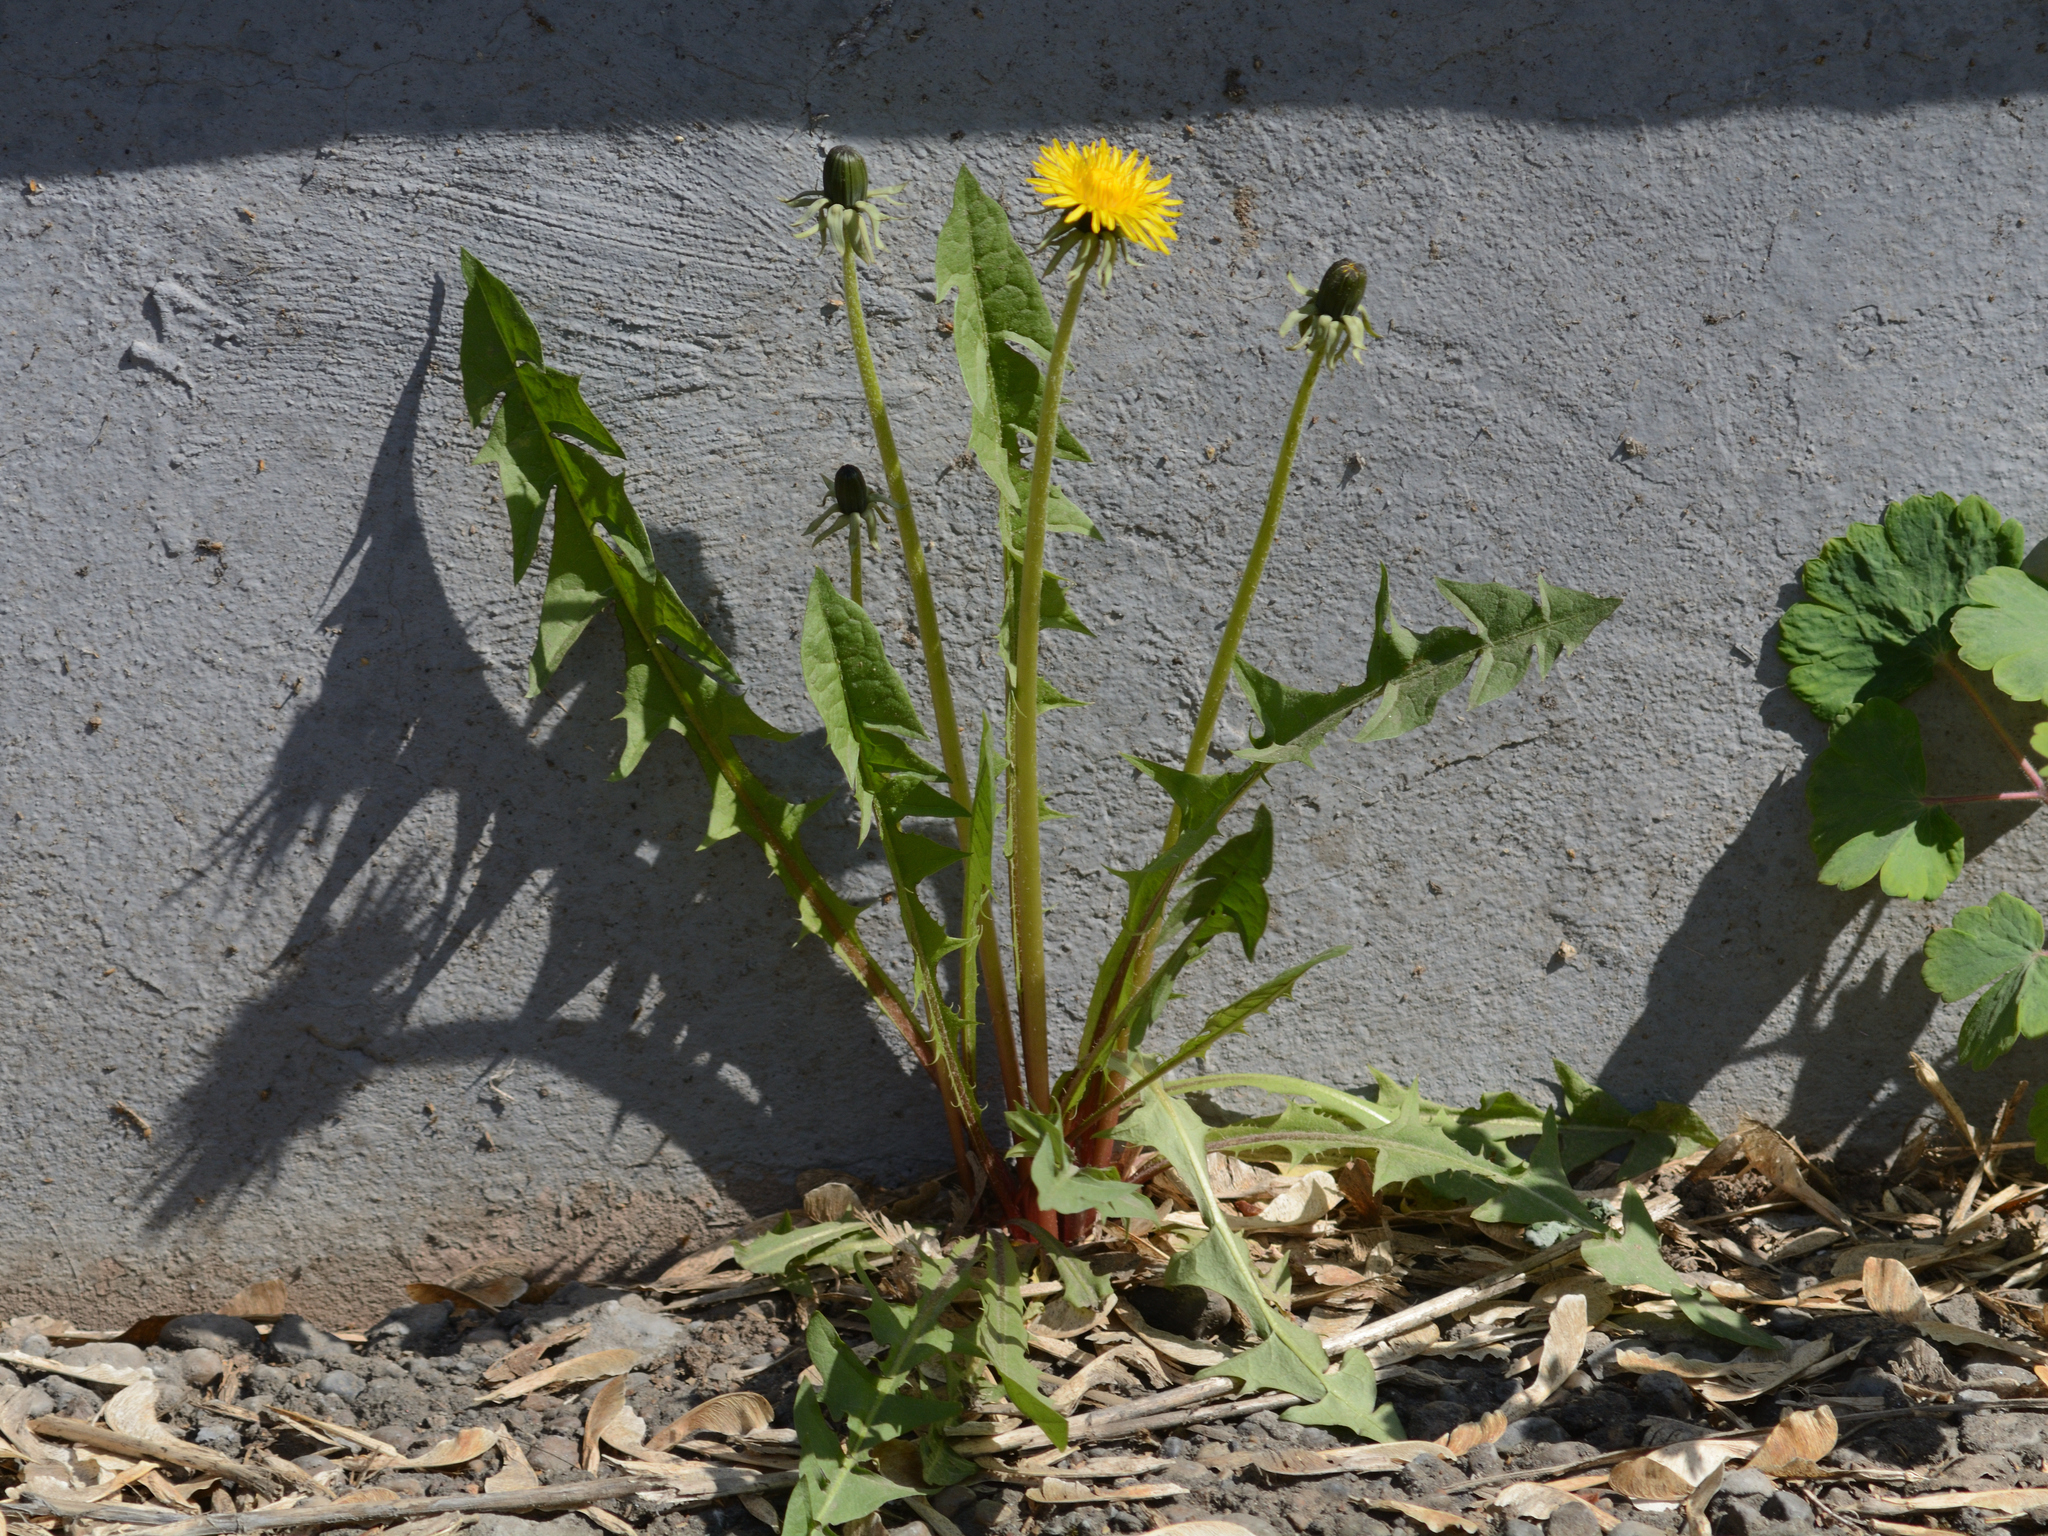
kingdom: Plantae
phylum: Tracheophyta
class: Magnoliopsida
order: Asterales
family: Asteraceae
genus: Taraxacum
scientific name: Taraxacum officinale
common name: Common dandelion
